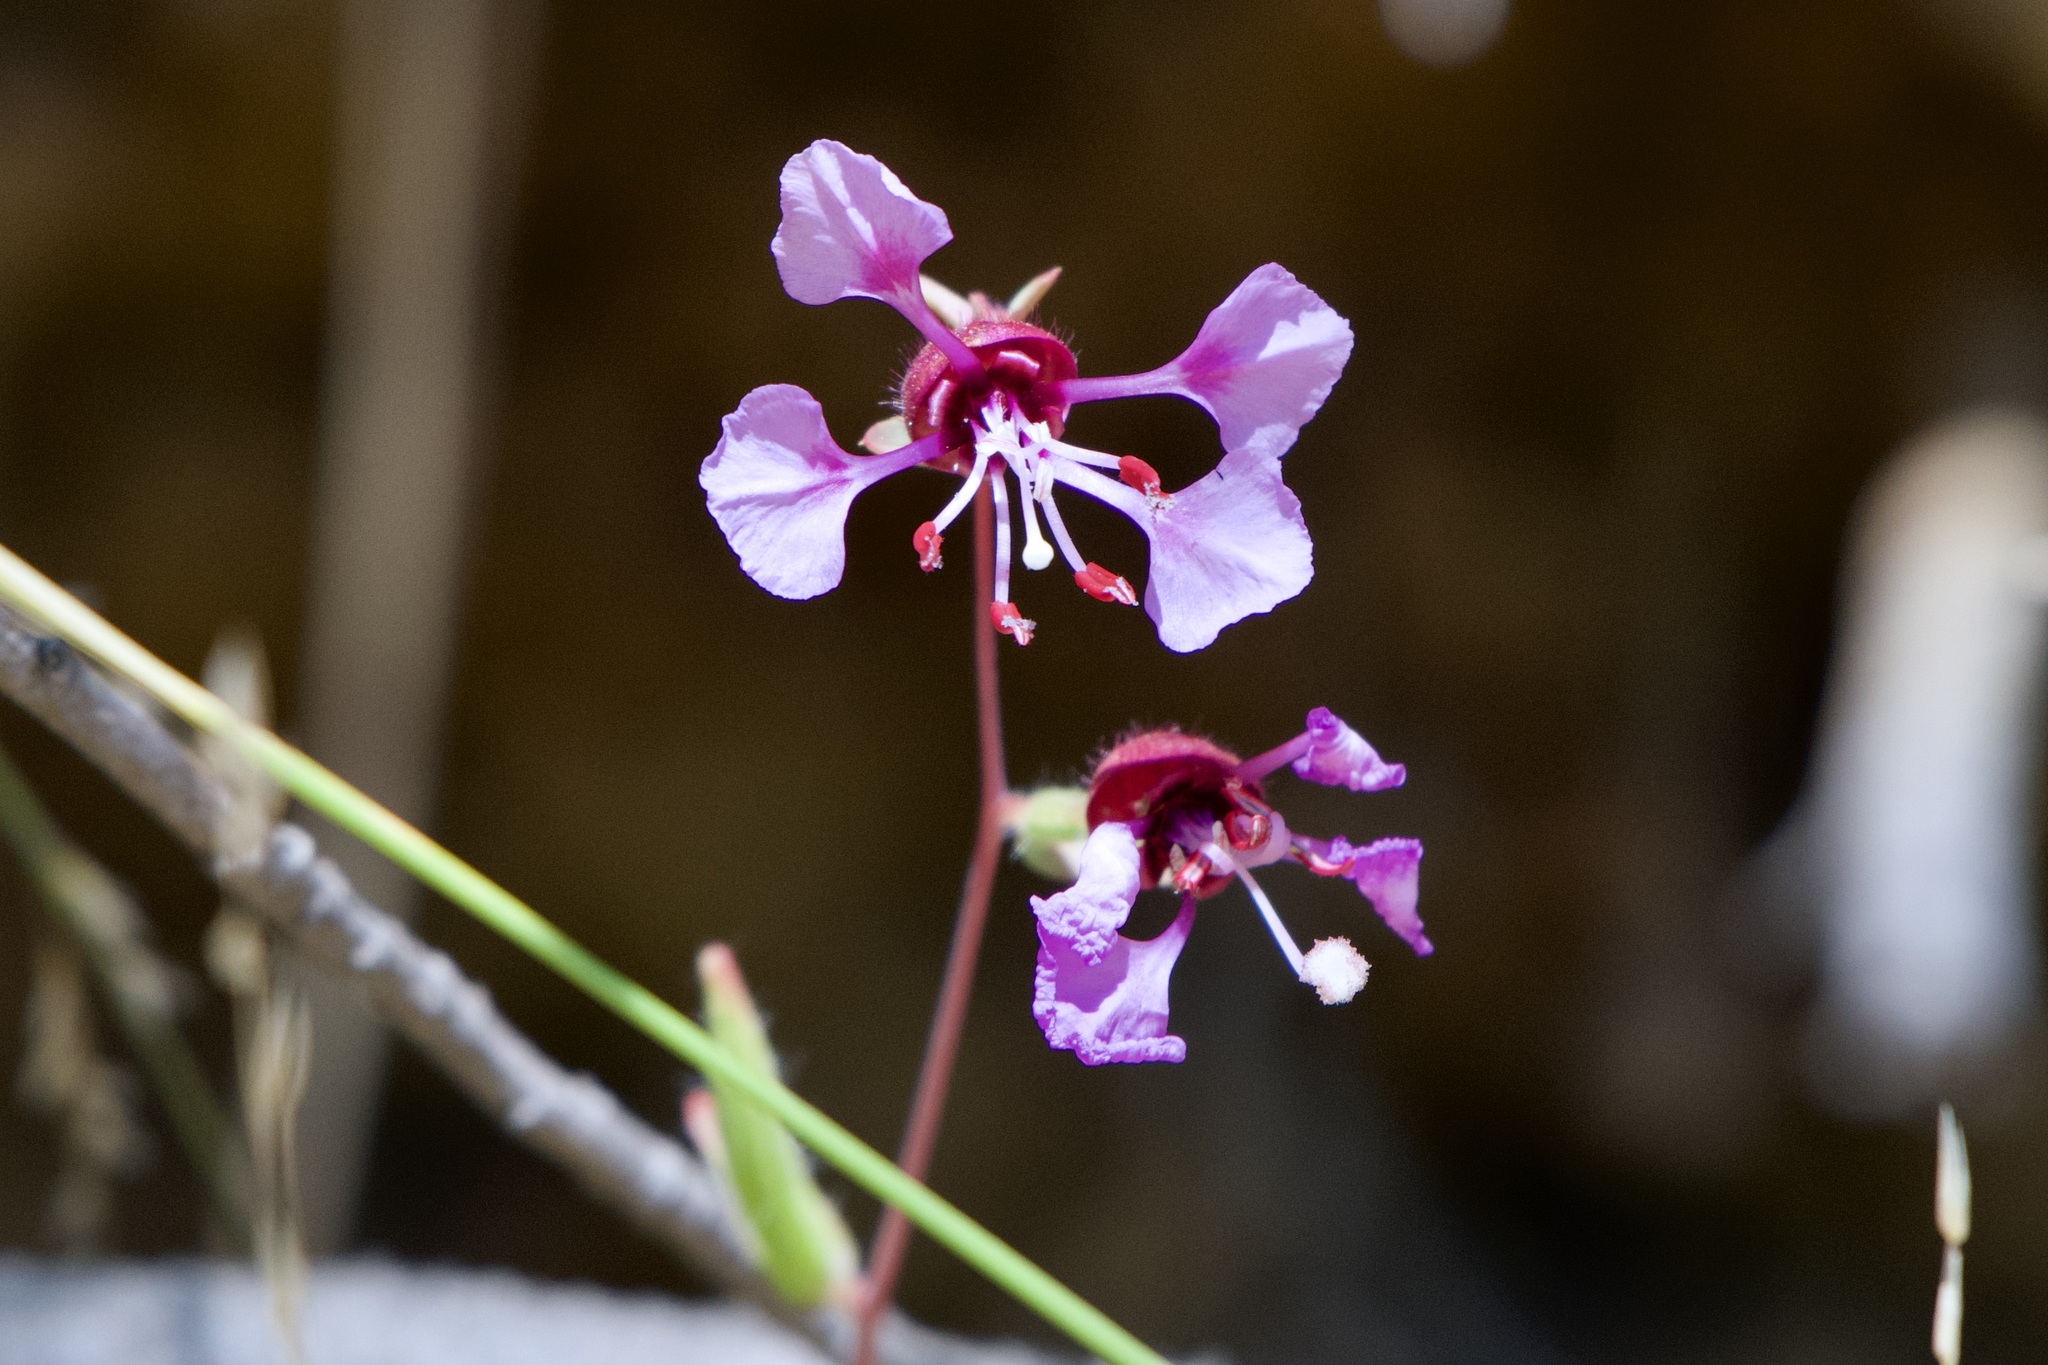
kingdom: Plantae
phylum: Tracheophyta
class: Magnoliopsida
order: Myrtales
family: Onagraceae
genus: Clarkia
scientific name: Clarkia unguiculata
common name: Clarkia
